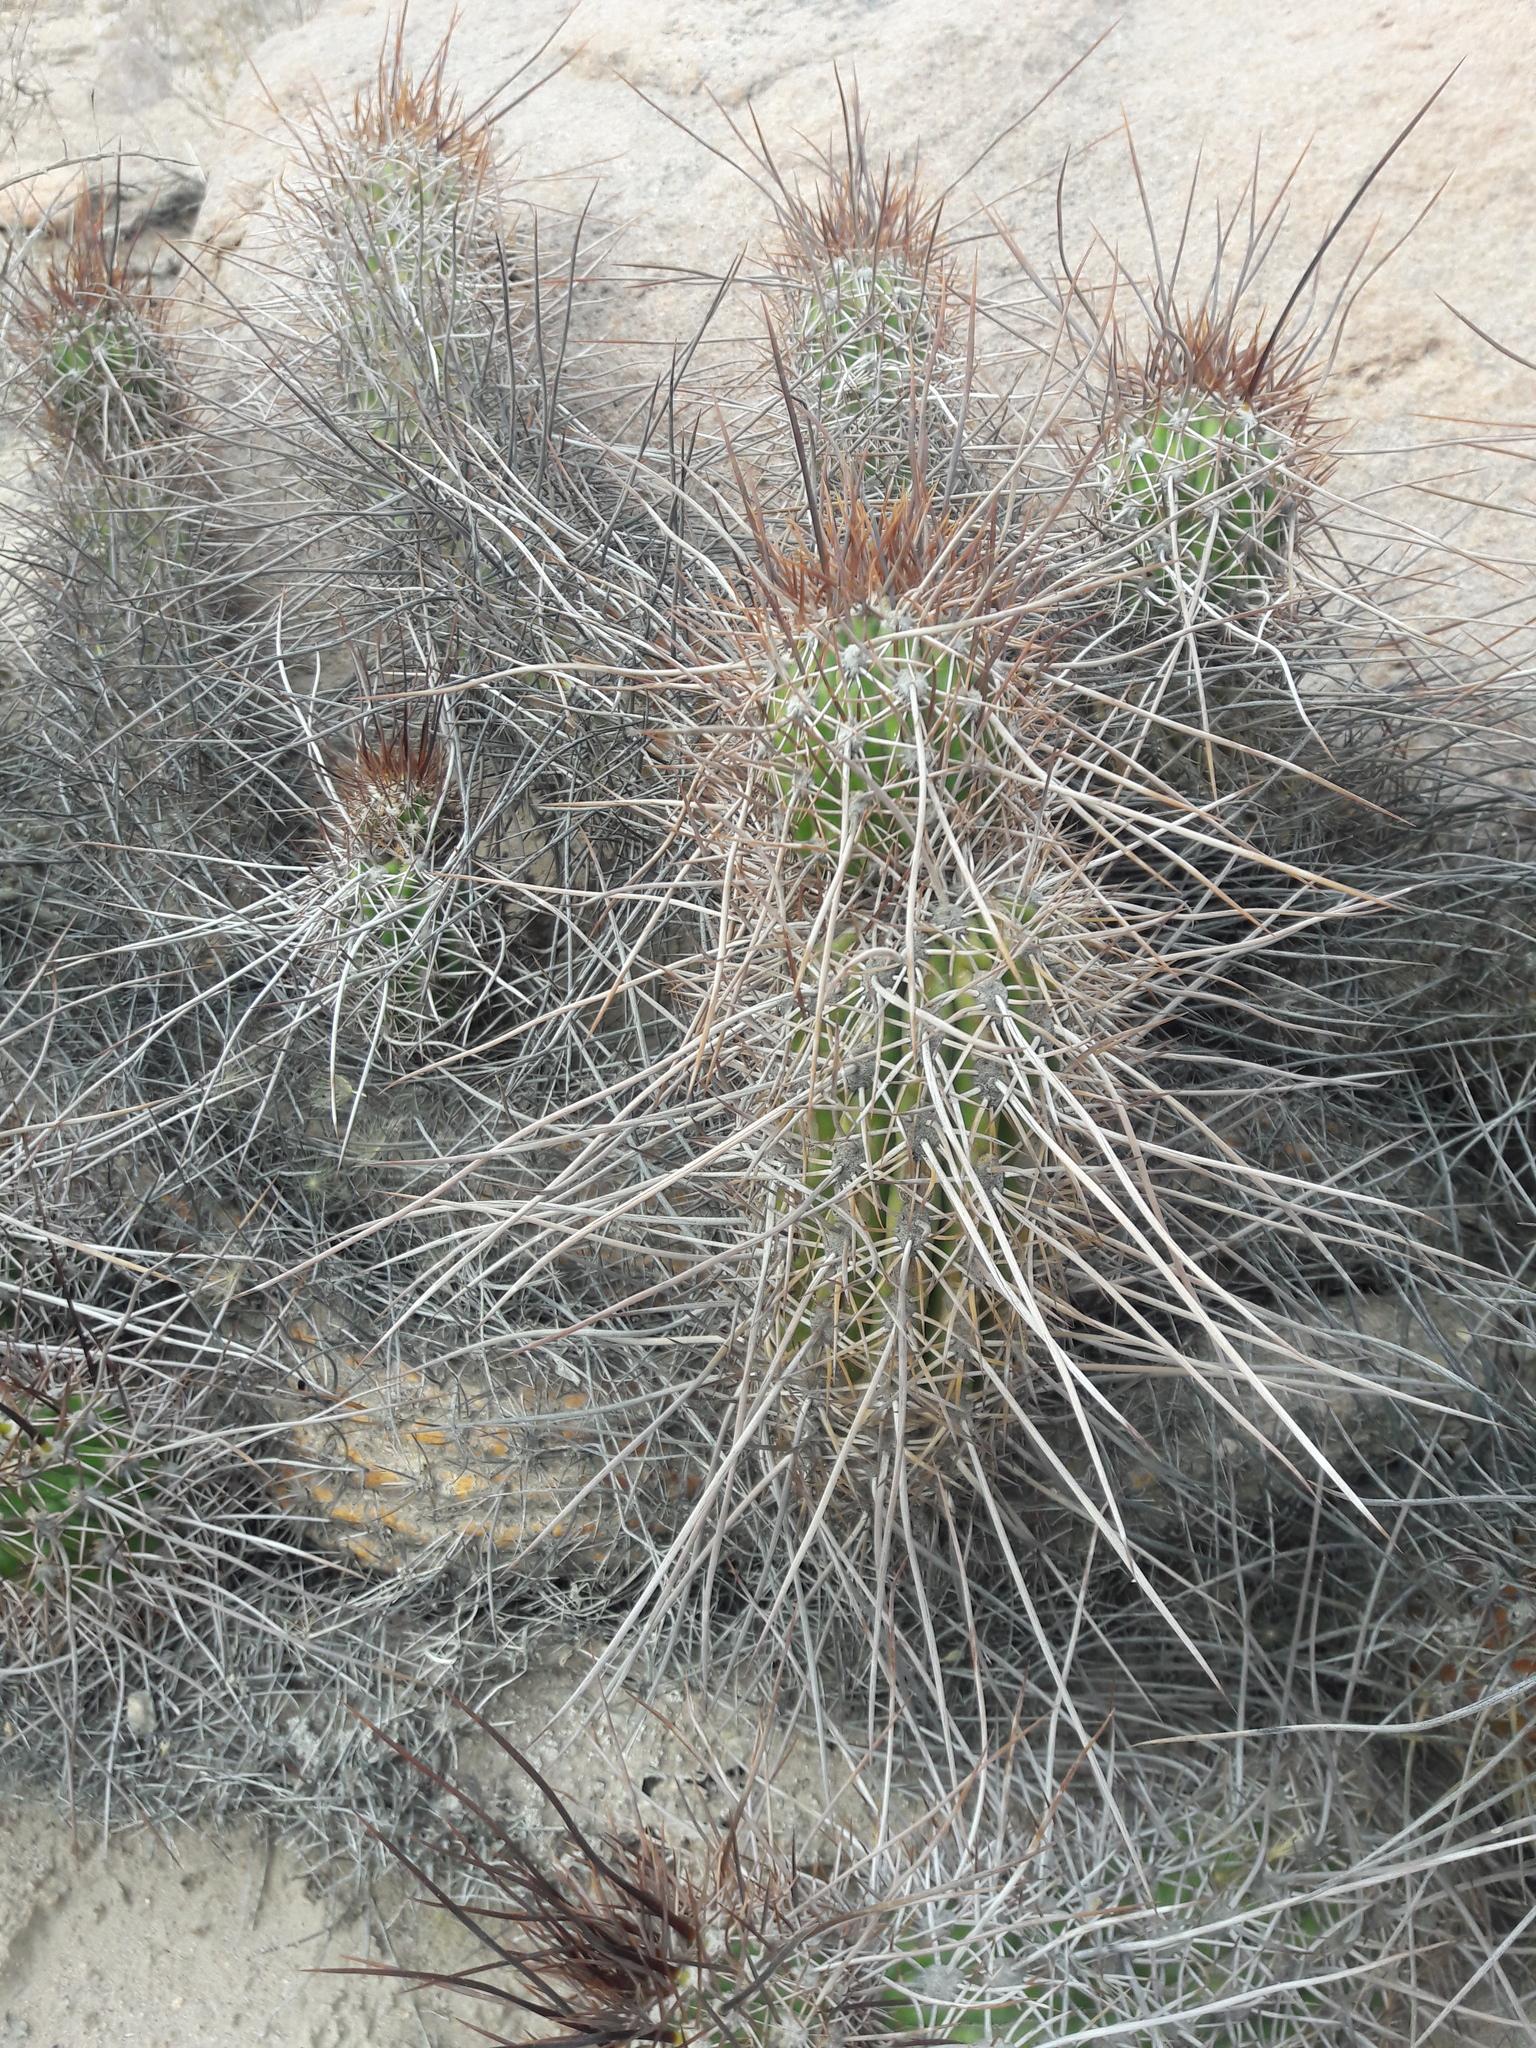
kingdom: Plantae
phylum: Tracheophyta
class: Magnoliopsida
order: Caryophyllales
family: Cactaceae
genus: Haageocereus
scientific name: Haageocereus fascicularis
